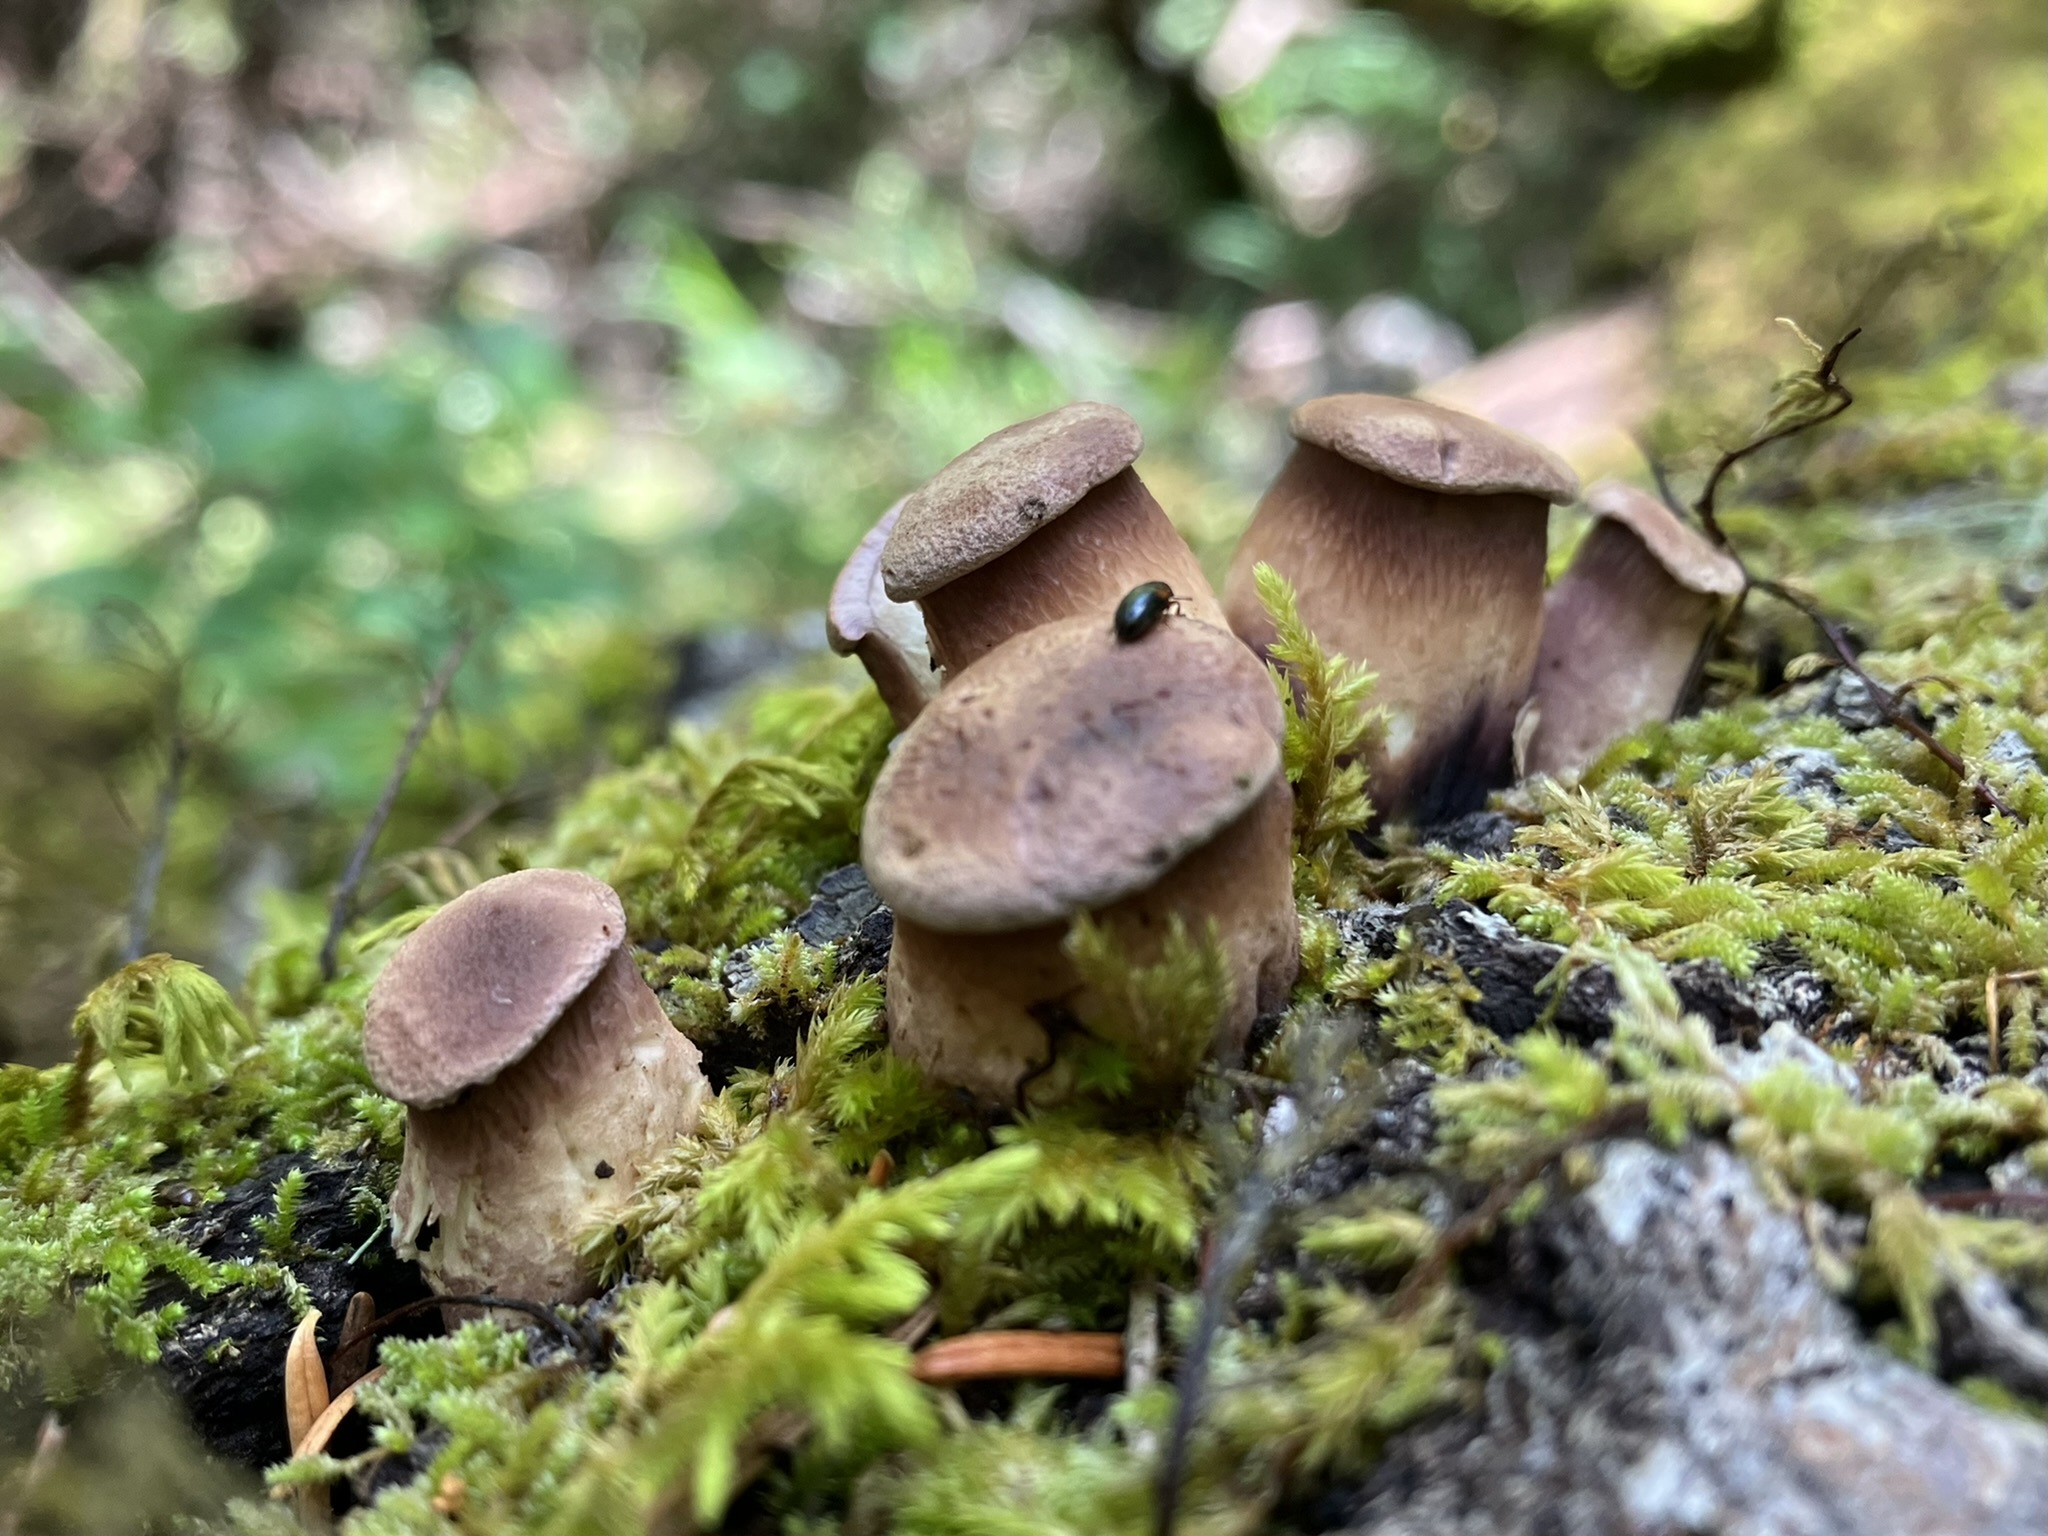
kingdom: Fungi
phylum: Basidiomycota
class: Agaricomycetes
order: Polyporales
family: Panaceae
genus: Panus
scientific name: Panus conchatus
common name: Lilac oysterling
